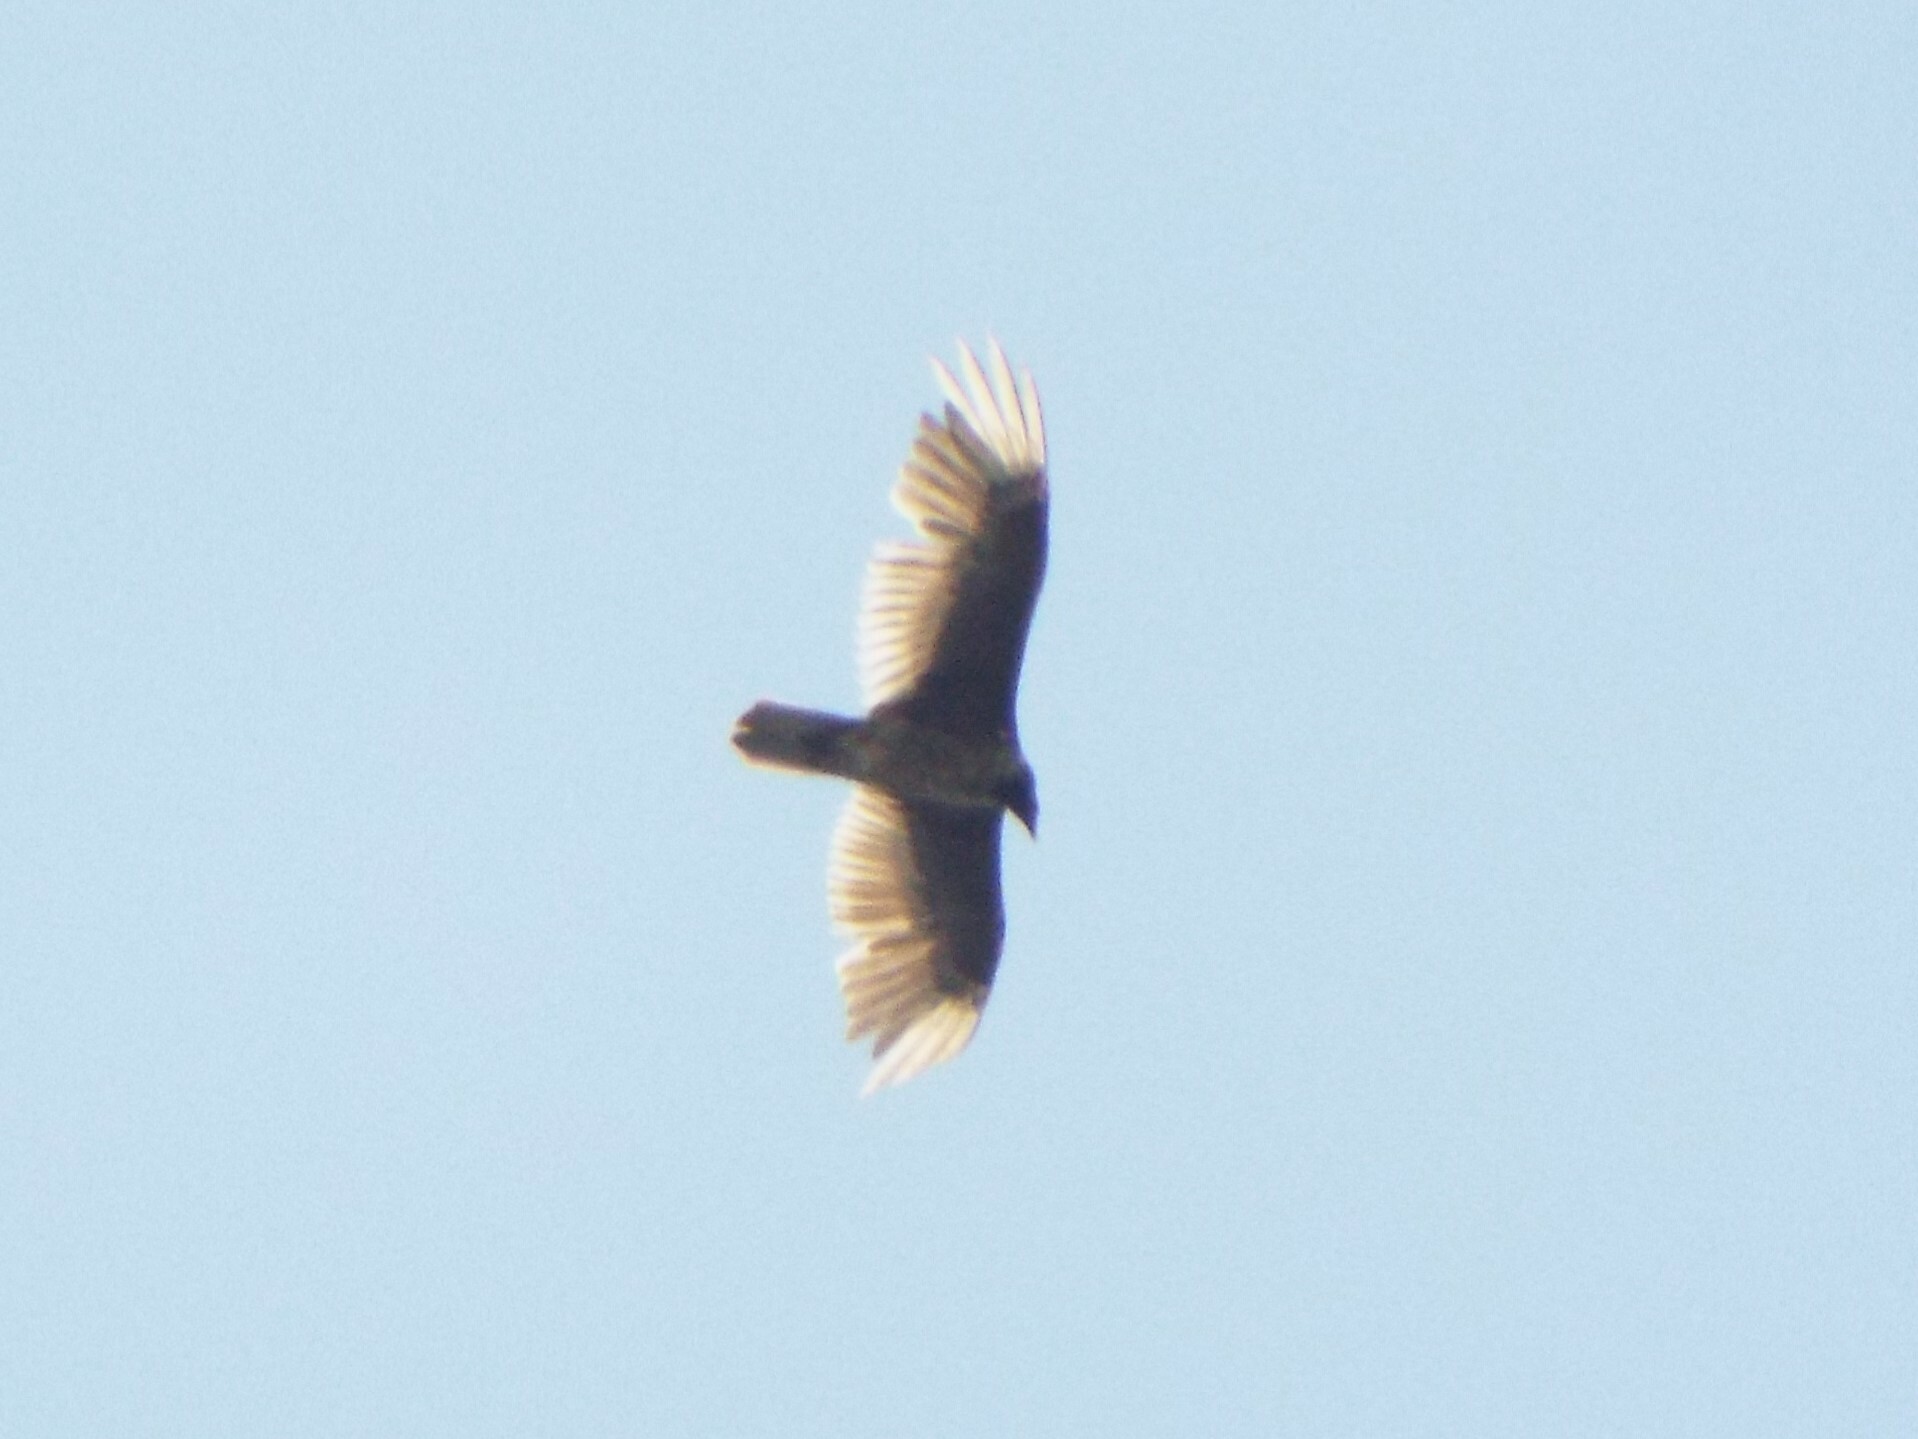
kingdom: Animalia
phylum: Chordata
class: Aves
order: Accipitriformes
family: Cathartidae
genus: Cathartes
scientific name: Cathartes aura
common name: Turkey vulture
